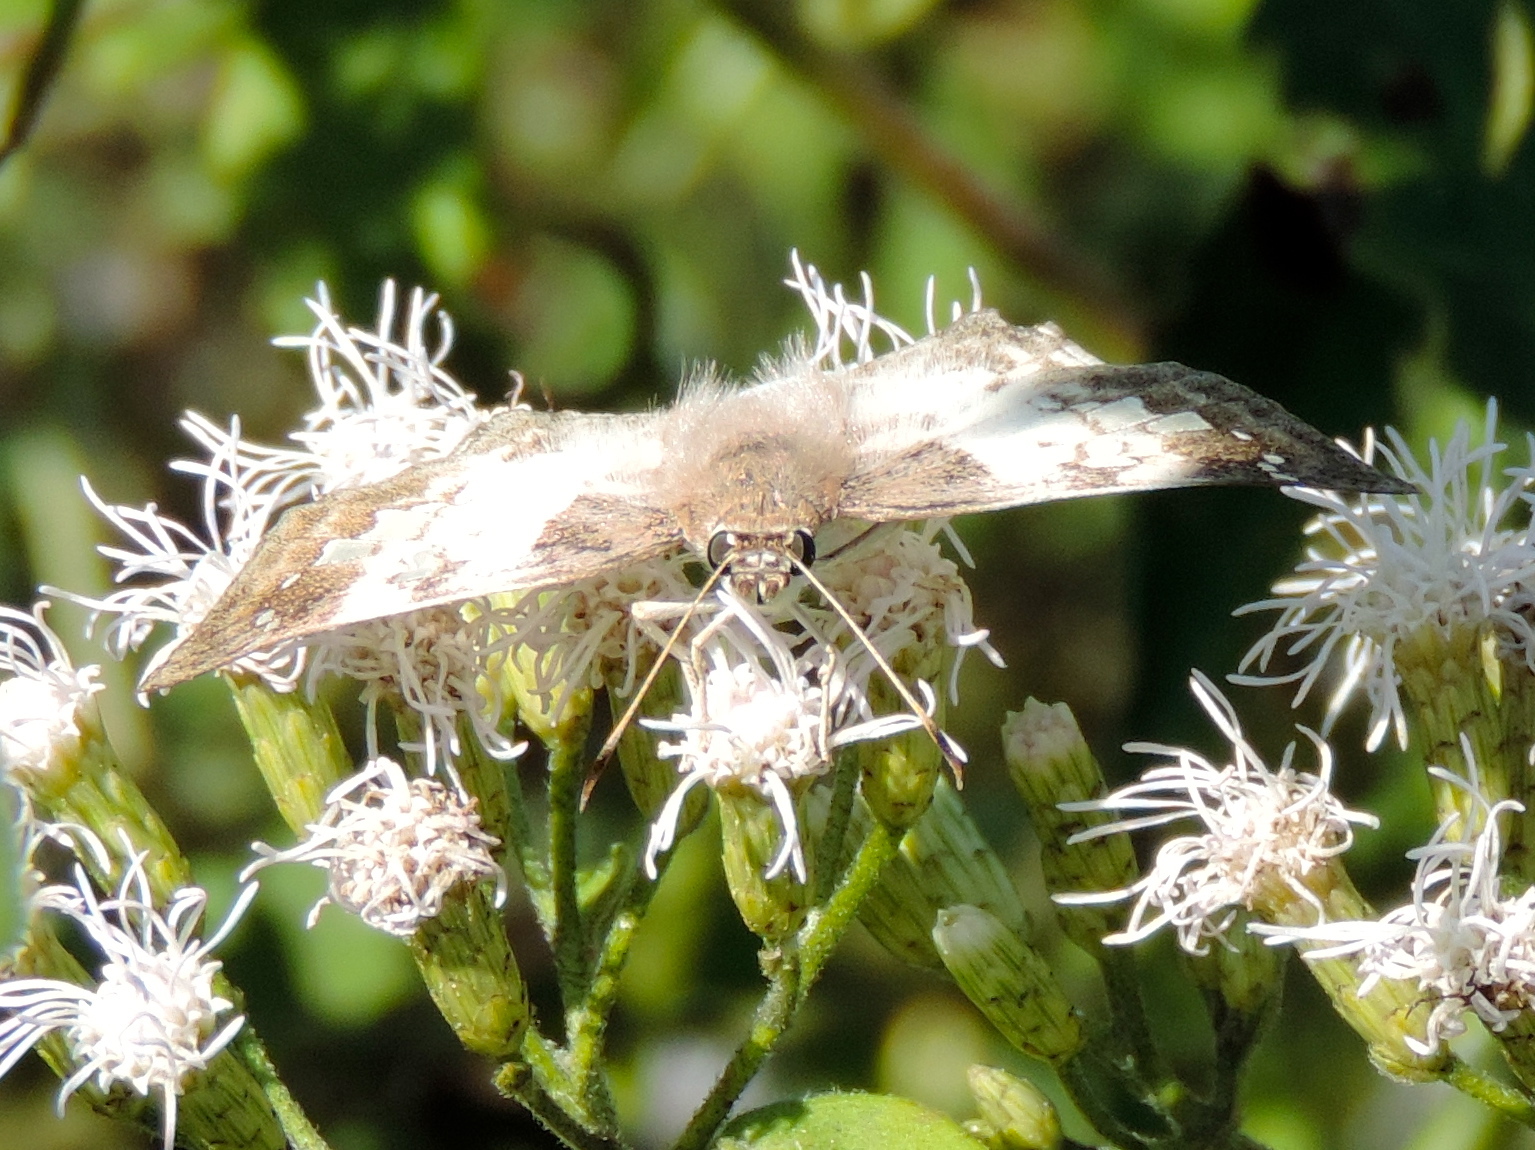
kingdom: Animalia
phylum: Arthropoda
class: Insecta
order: Lepidoptera
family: Hesperiidae
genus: Pyrginae
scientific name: Pyrginae
